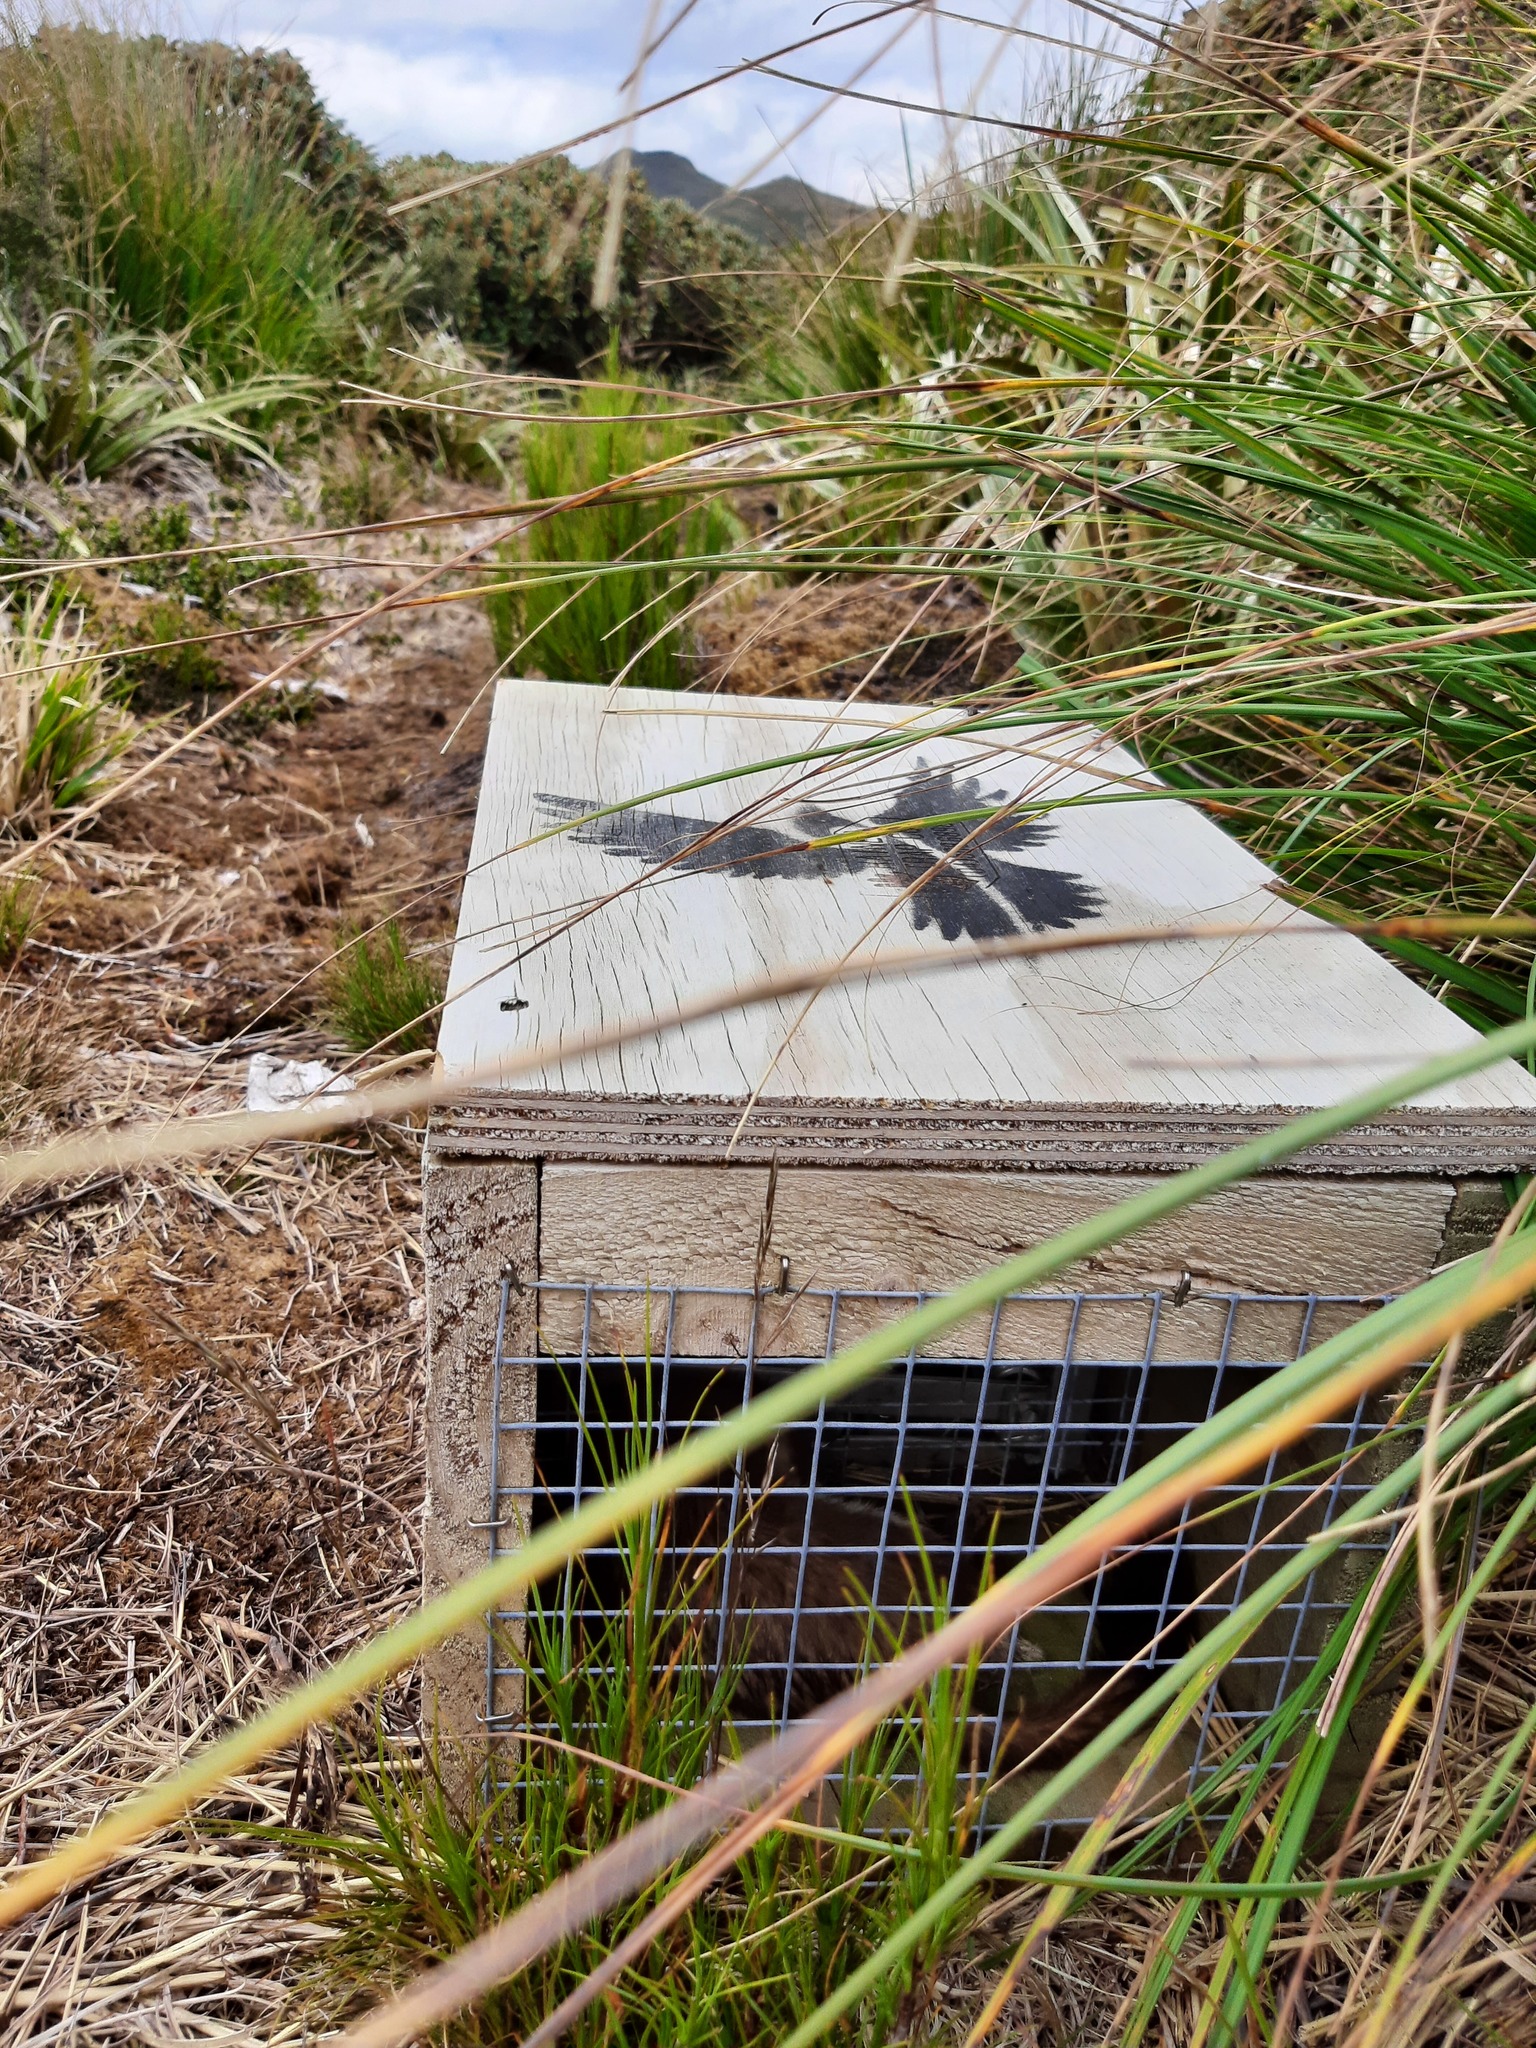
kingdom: Animalia
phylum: Chordata
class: Mammalia
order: Carnivora
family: Mustelidae
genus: Mustela
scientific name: Mustela erminea
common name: Stoat
